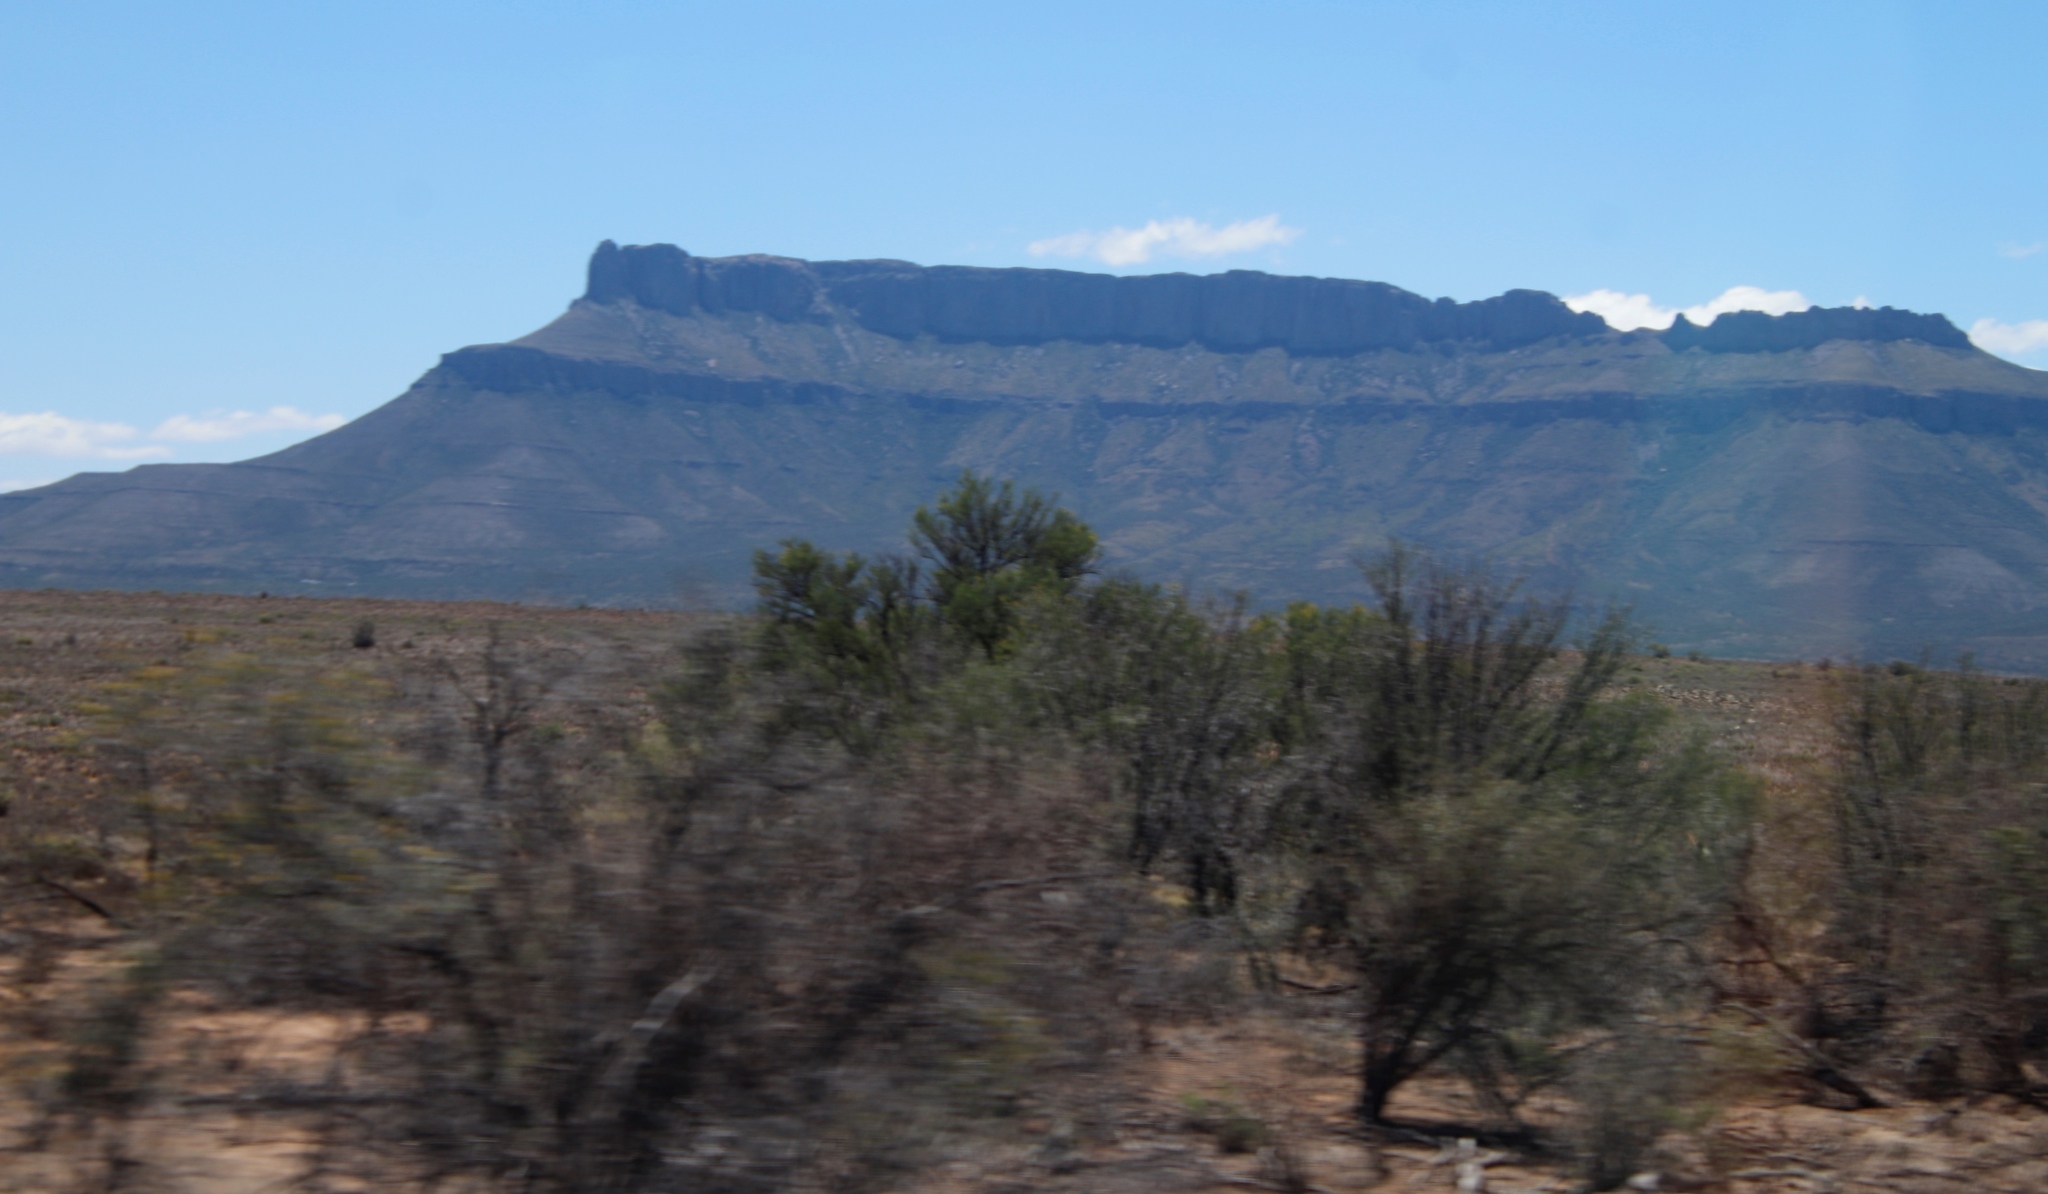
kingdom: Plantae
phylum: Tracheophyta
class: Magnoliopsida
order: Fabales
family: Fabaceae
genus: Vachellia
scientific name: Vachellia karroo
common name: Sweet thorn
